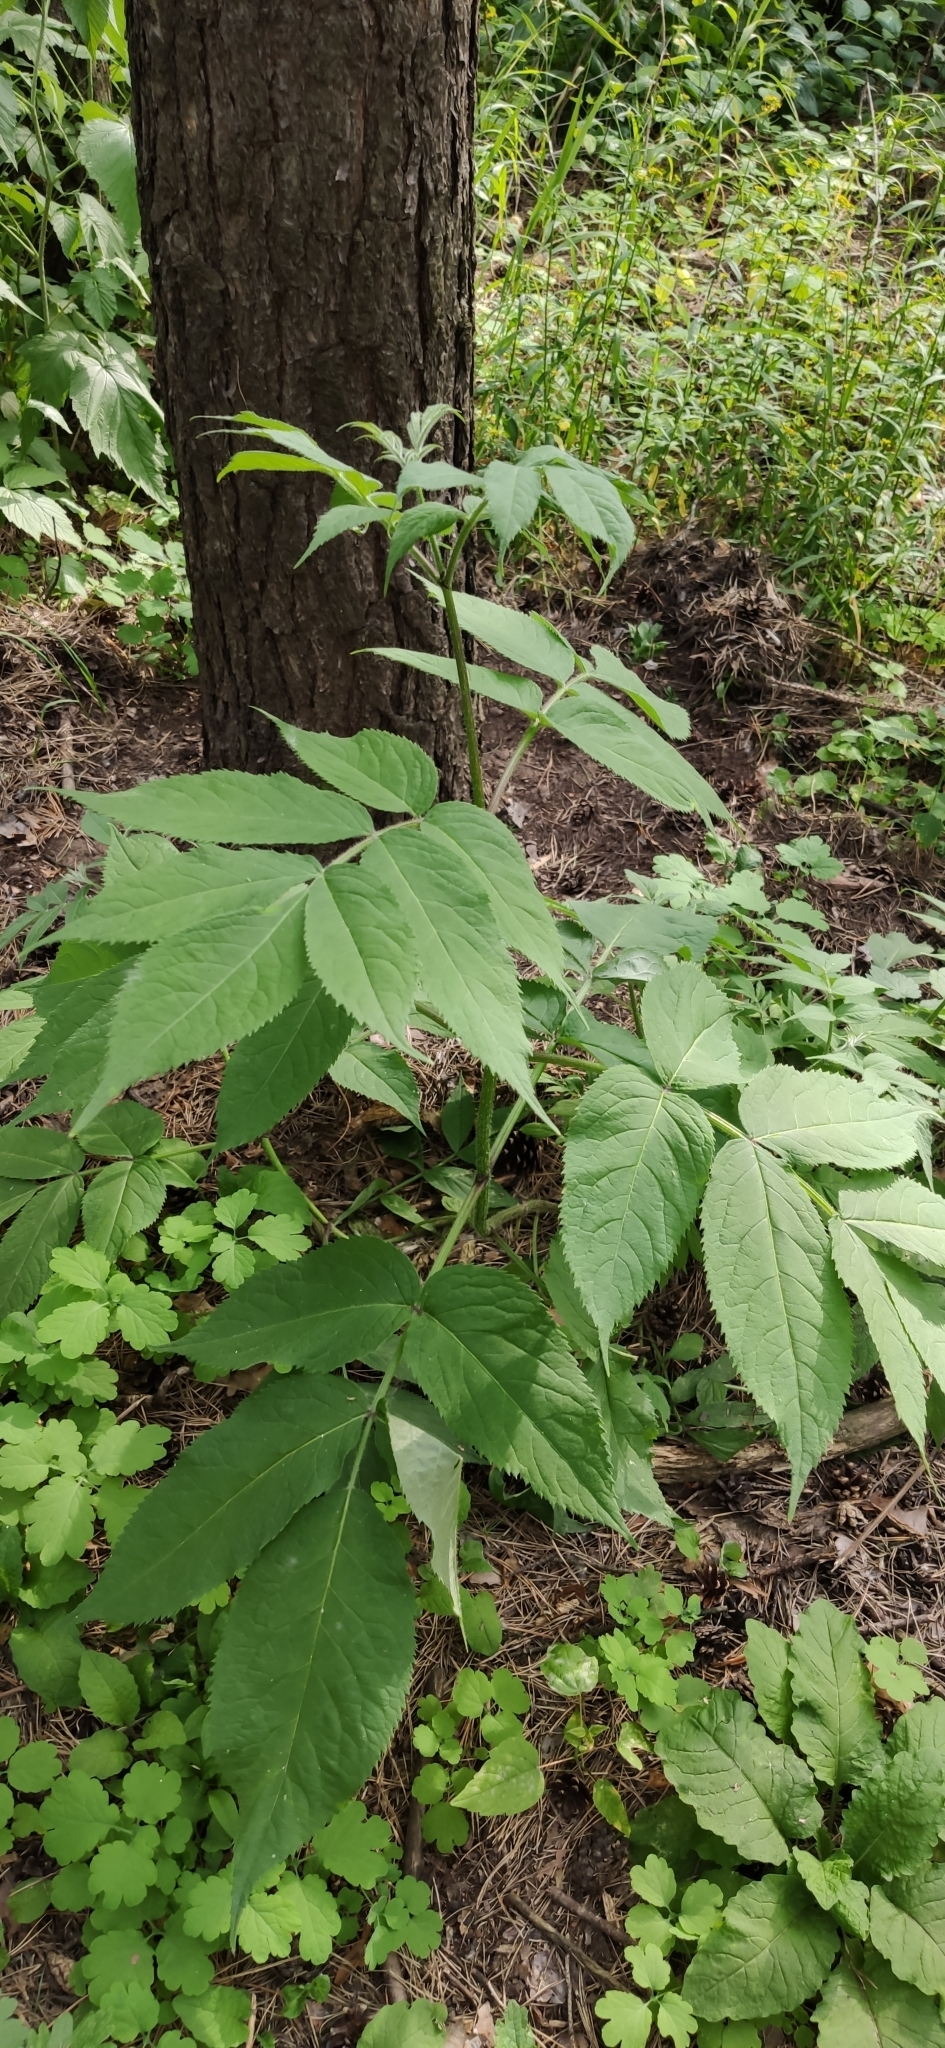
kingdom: Plantae
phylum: Tracheophyta
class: Magnoliopsida
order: Dipsacales
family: Viburnaceae
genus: Sambucus
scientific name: Sambucus sibirica
